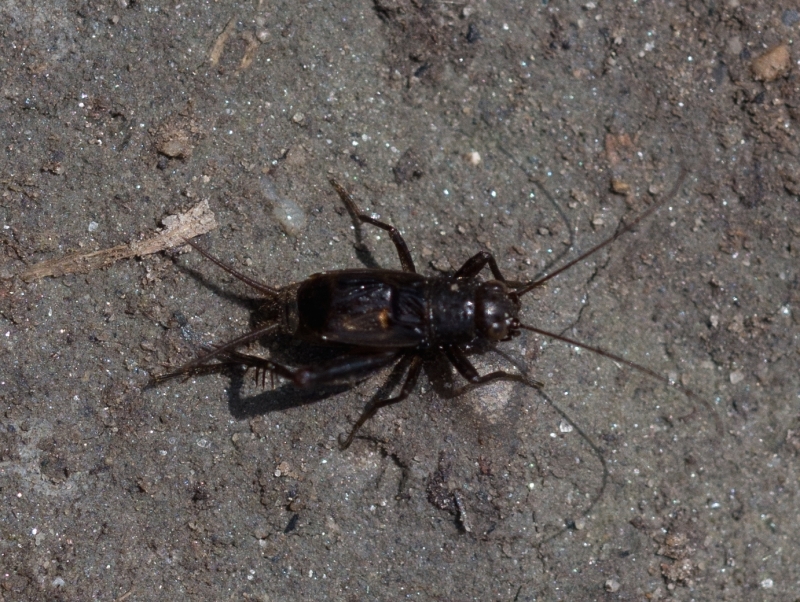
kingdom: Animalia
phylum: Arthropoda
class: Insecta
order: Orthoptera
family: Trigonidiidae
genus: Pteronemobius
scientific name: Pteronemobius heydenii
